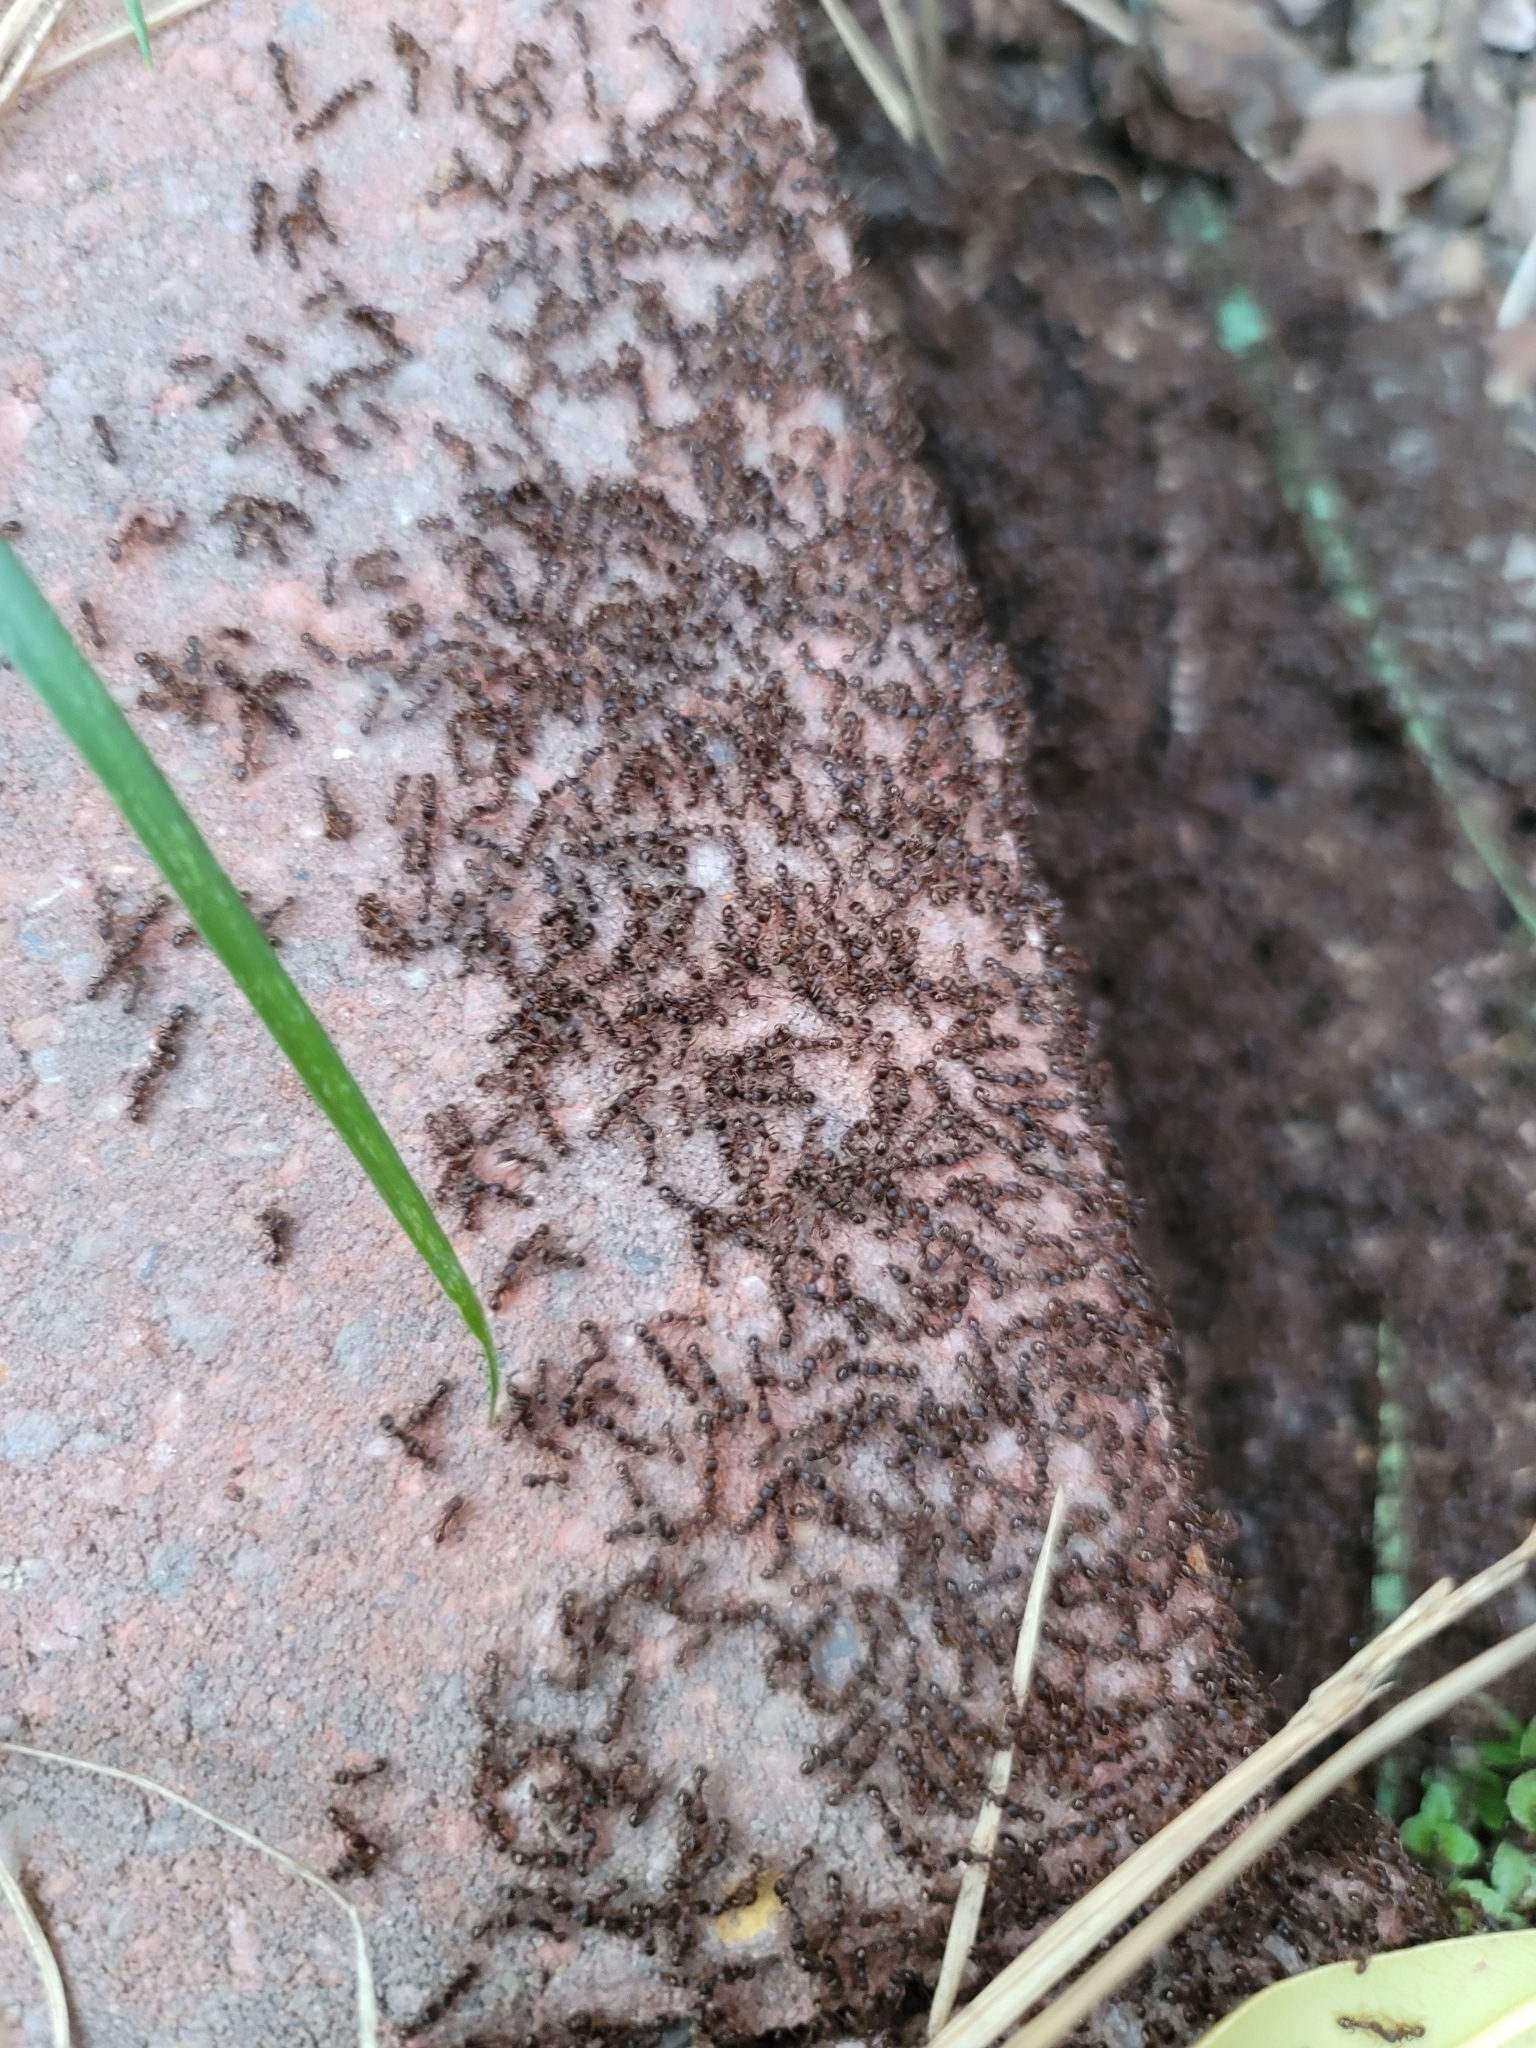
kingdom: Animalia
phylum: Arthropoda
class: Insecta
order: Hymenoptera
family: Formicidae
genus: Tetramorium
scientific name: Tetramorium immigrans
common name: Pavement ant
